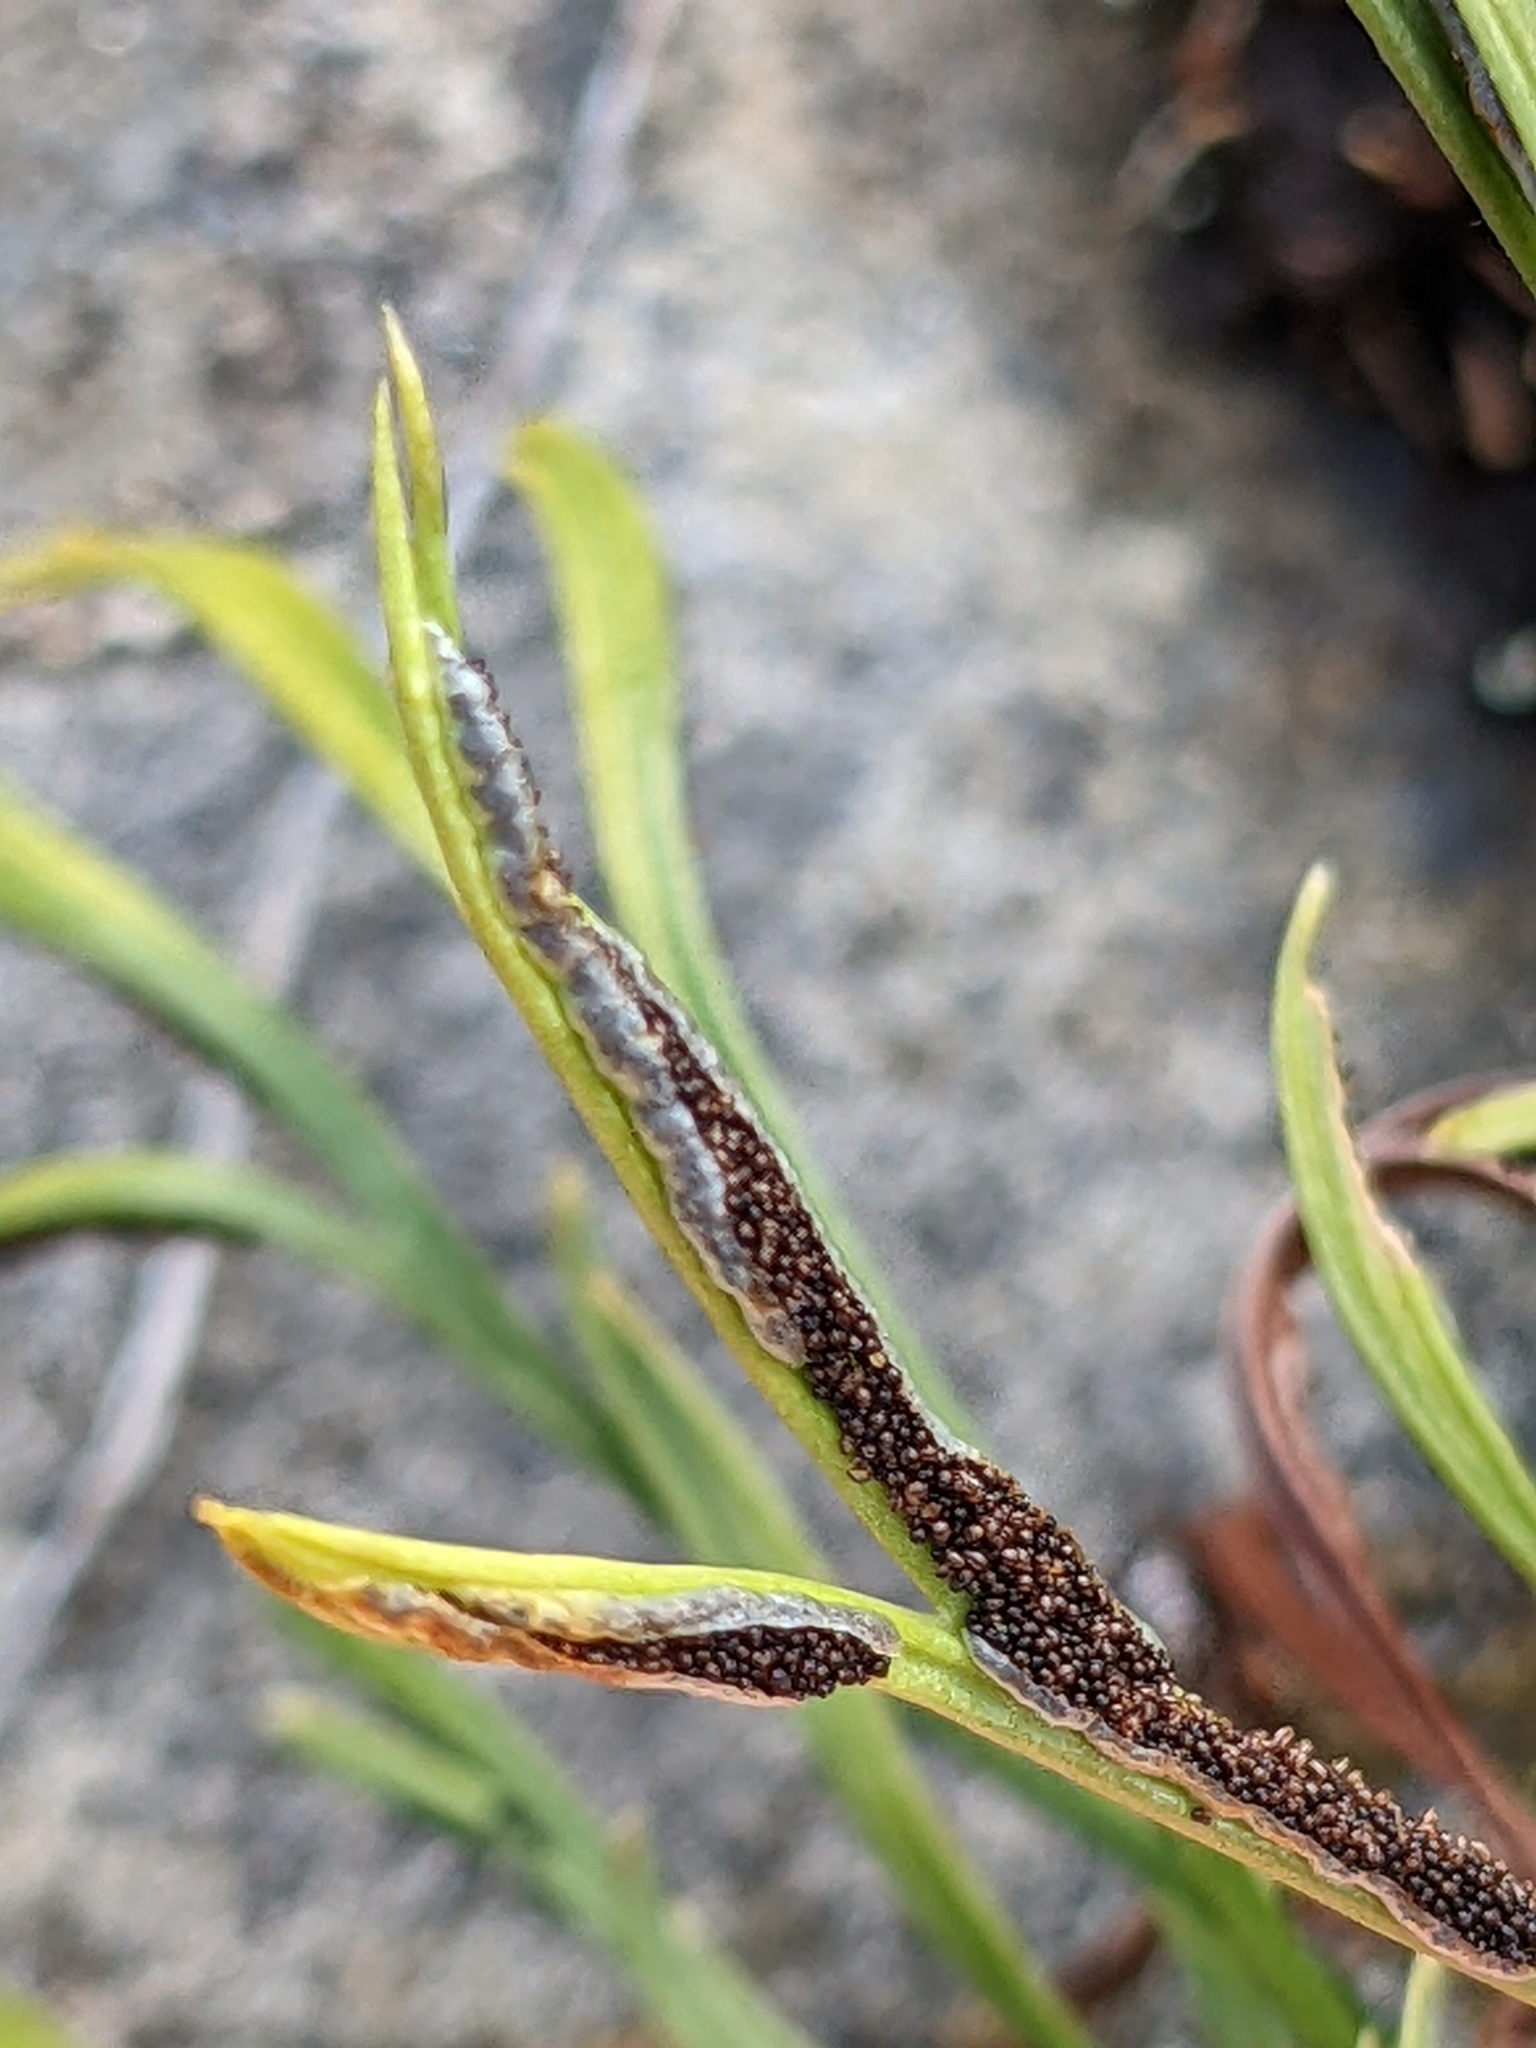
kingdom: Plantae
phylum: Tracheophyta
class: Polypodiopsida
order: Polypodiales
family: Aspleniaceae
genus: Asplenium
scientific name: Asplenium septentrionale
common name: Forked spleenwort
